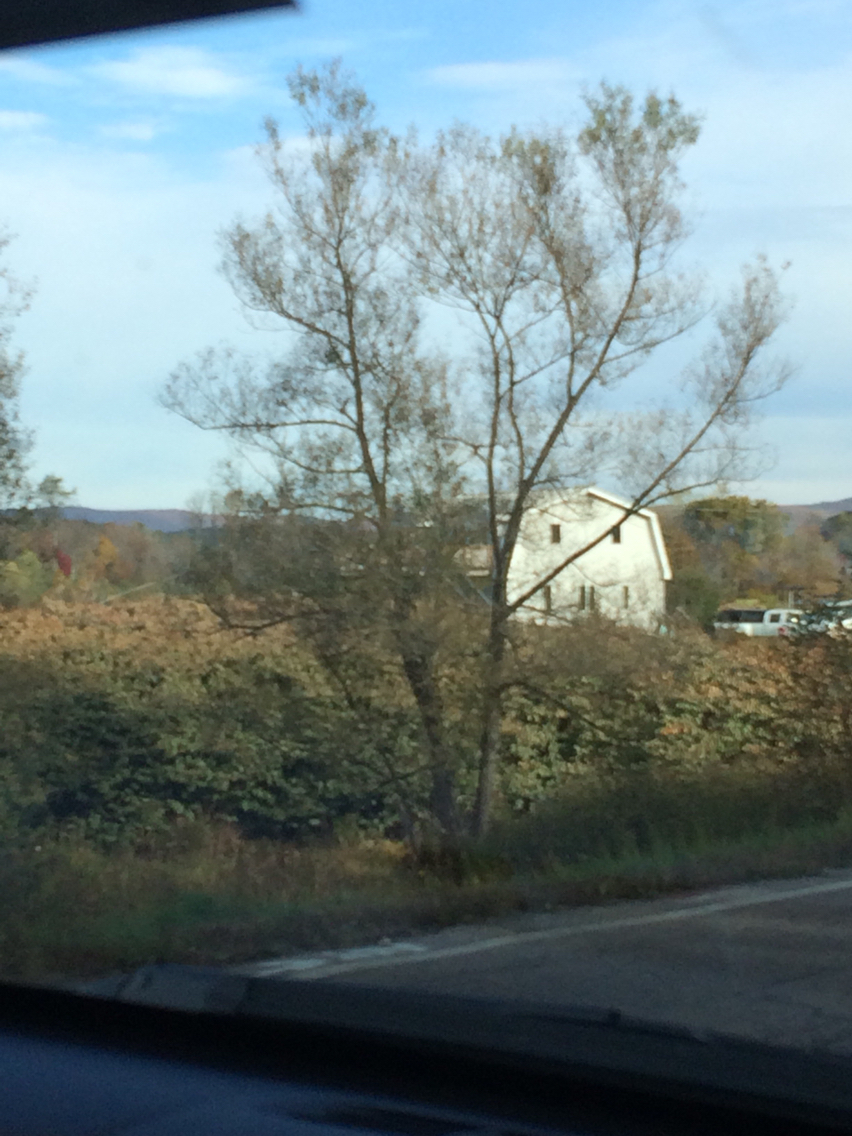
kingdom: Plantae
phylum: Tracheophyta
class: Magnoliopsida
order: Caryophyllales
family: Polygonaceae
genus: Reynoutria
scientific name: Reynoutria japonica
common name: Japanese knotweed
